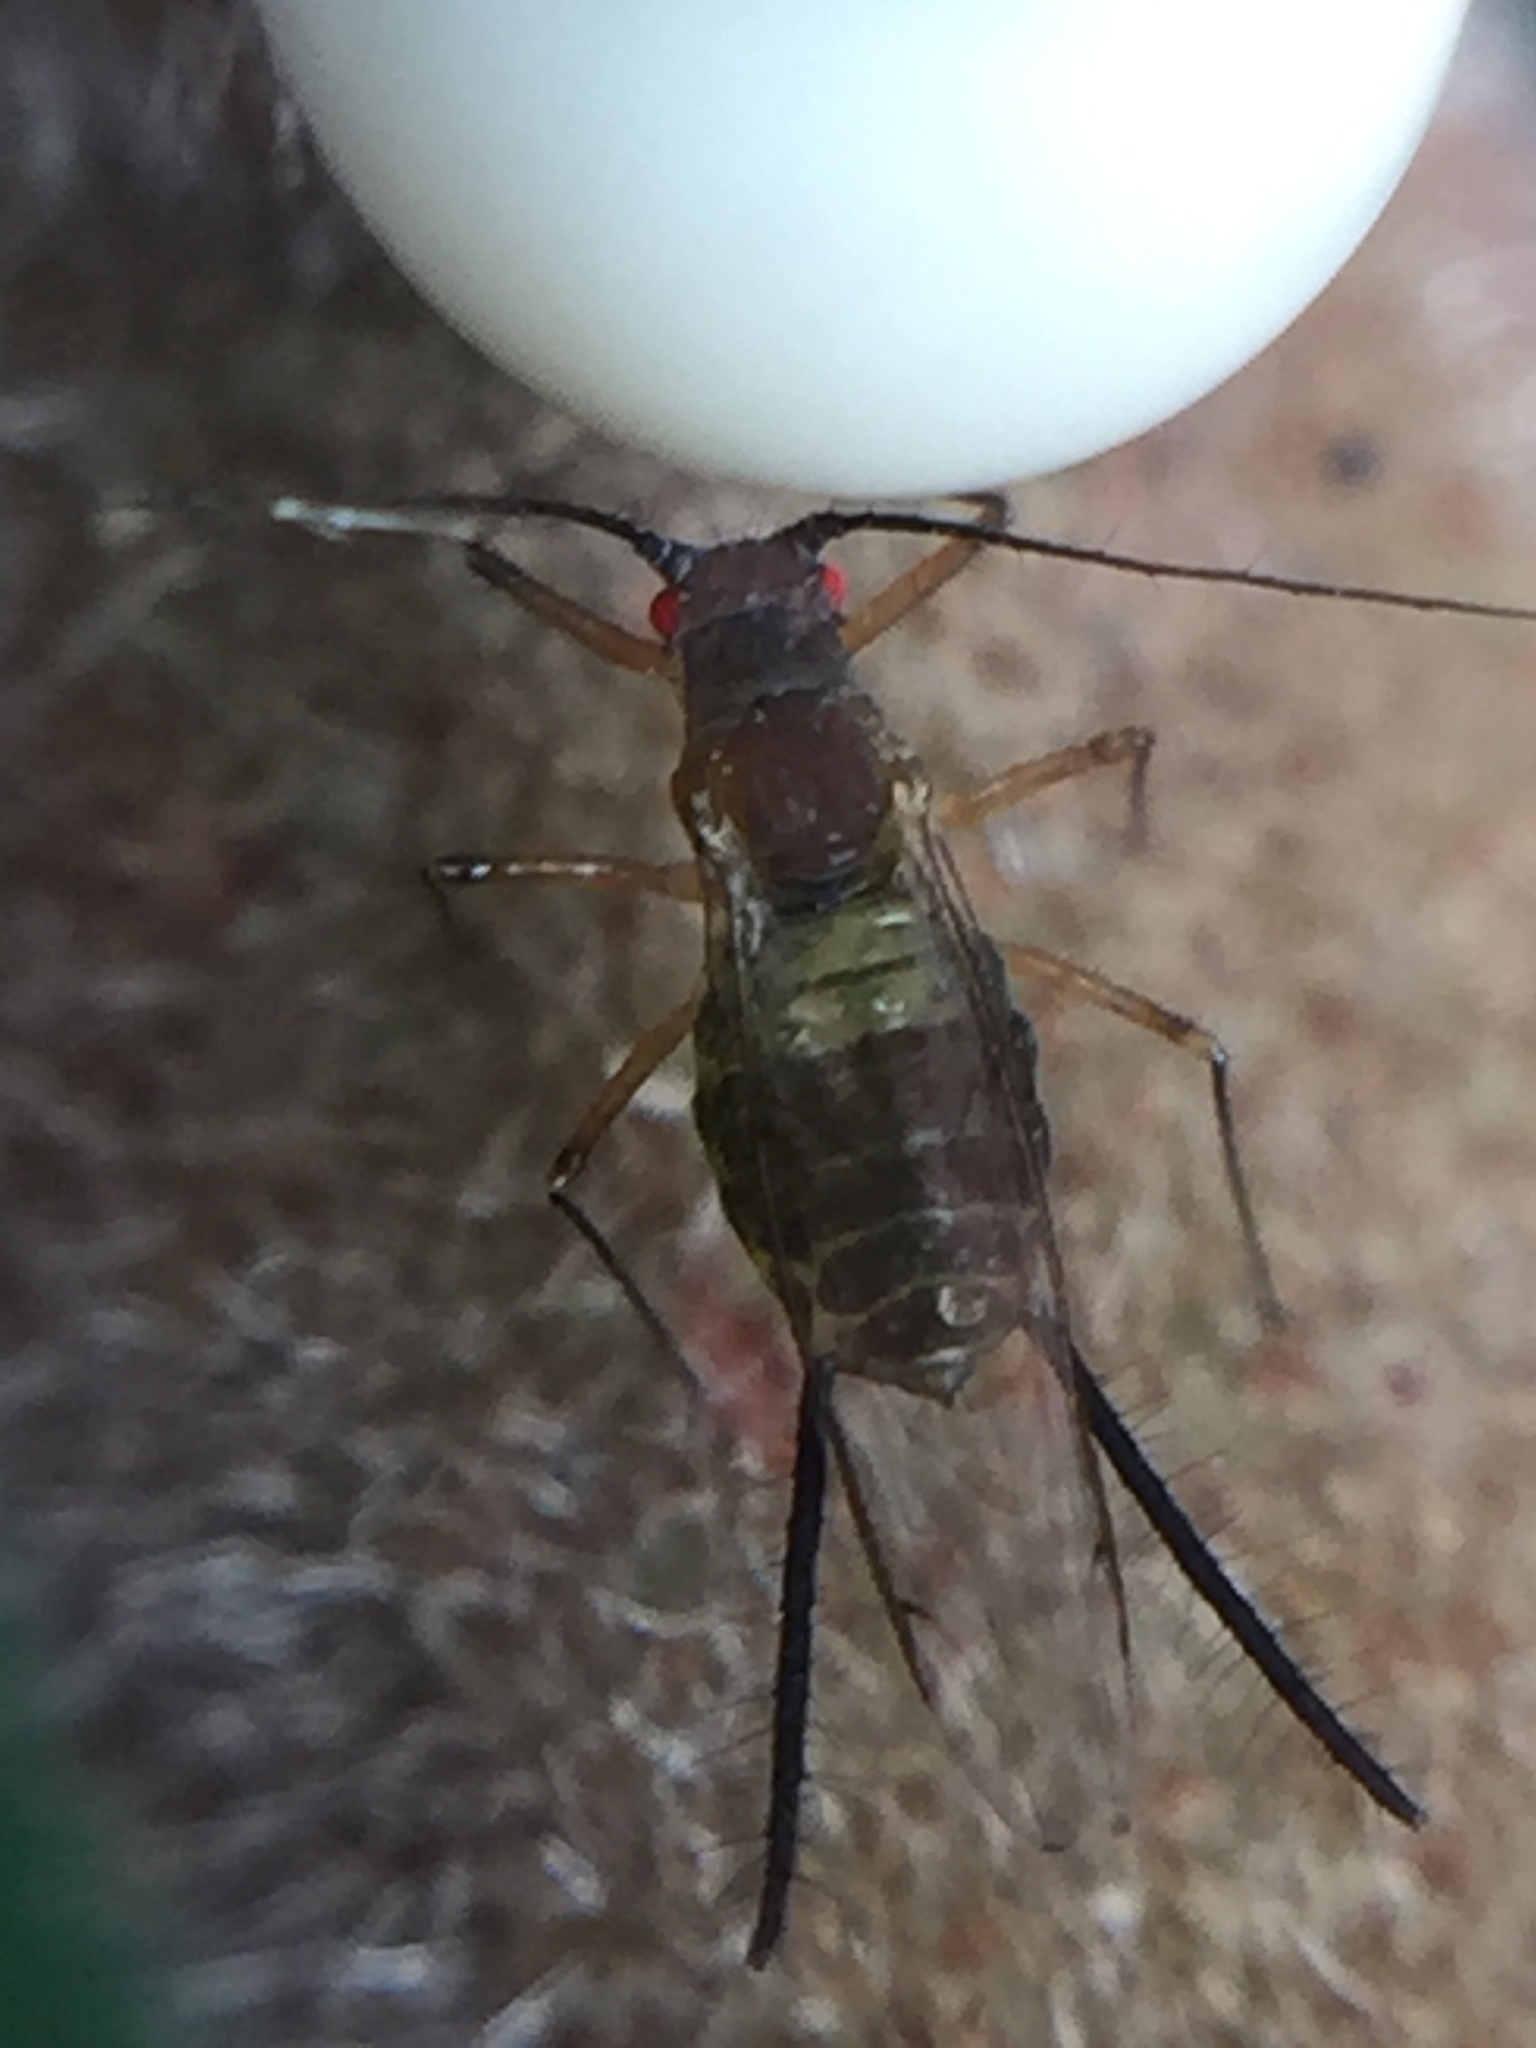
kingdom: Animalia
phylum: Arthropoda
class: Insecta
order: Hemiptera
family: Aphididae
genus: Greenidea
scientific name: Greenidea ficicola
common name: Aphid
